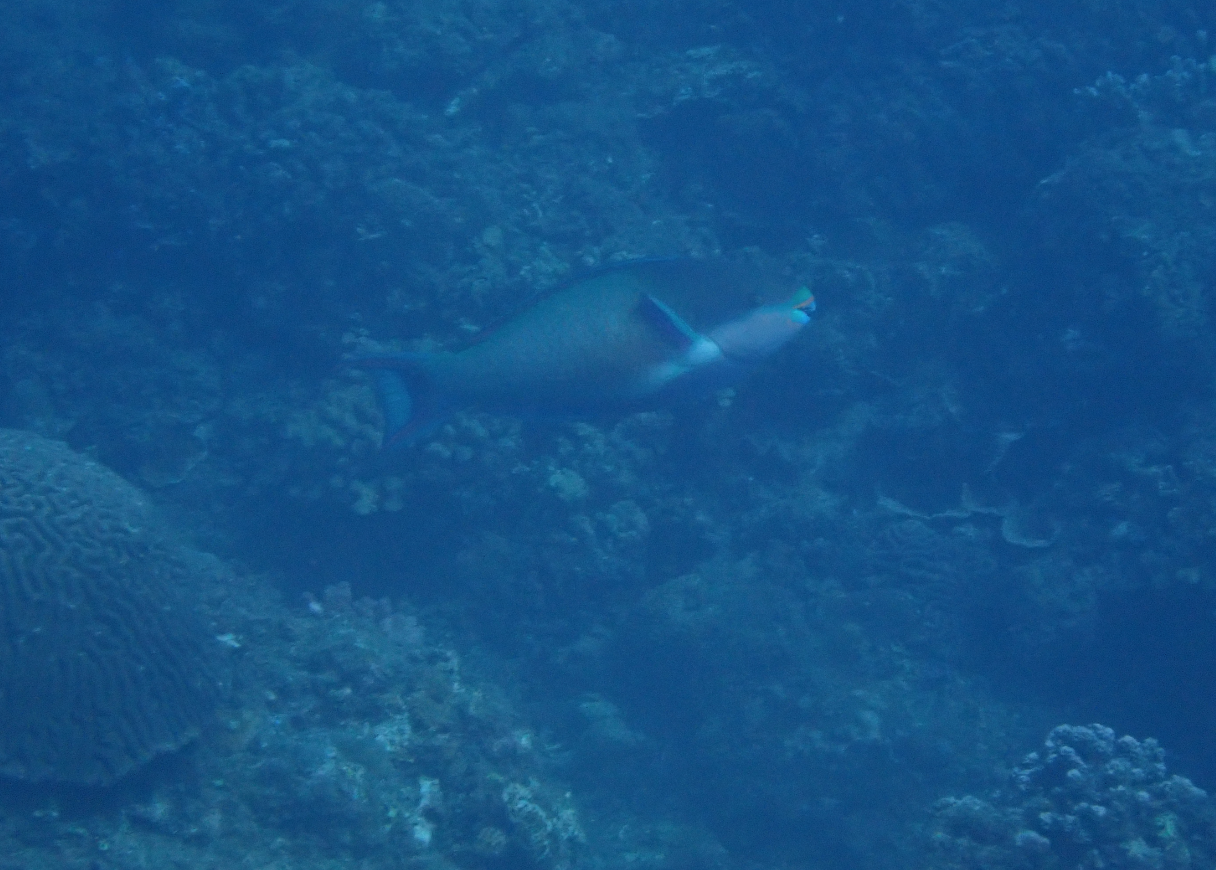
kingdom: Animalia
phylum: Chordata
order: Perciformes
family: Scaridae
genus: Scarus
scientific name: Scarus forsteni
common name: Forsten's parrotfish
